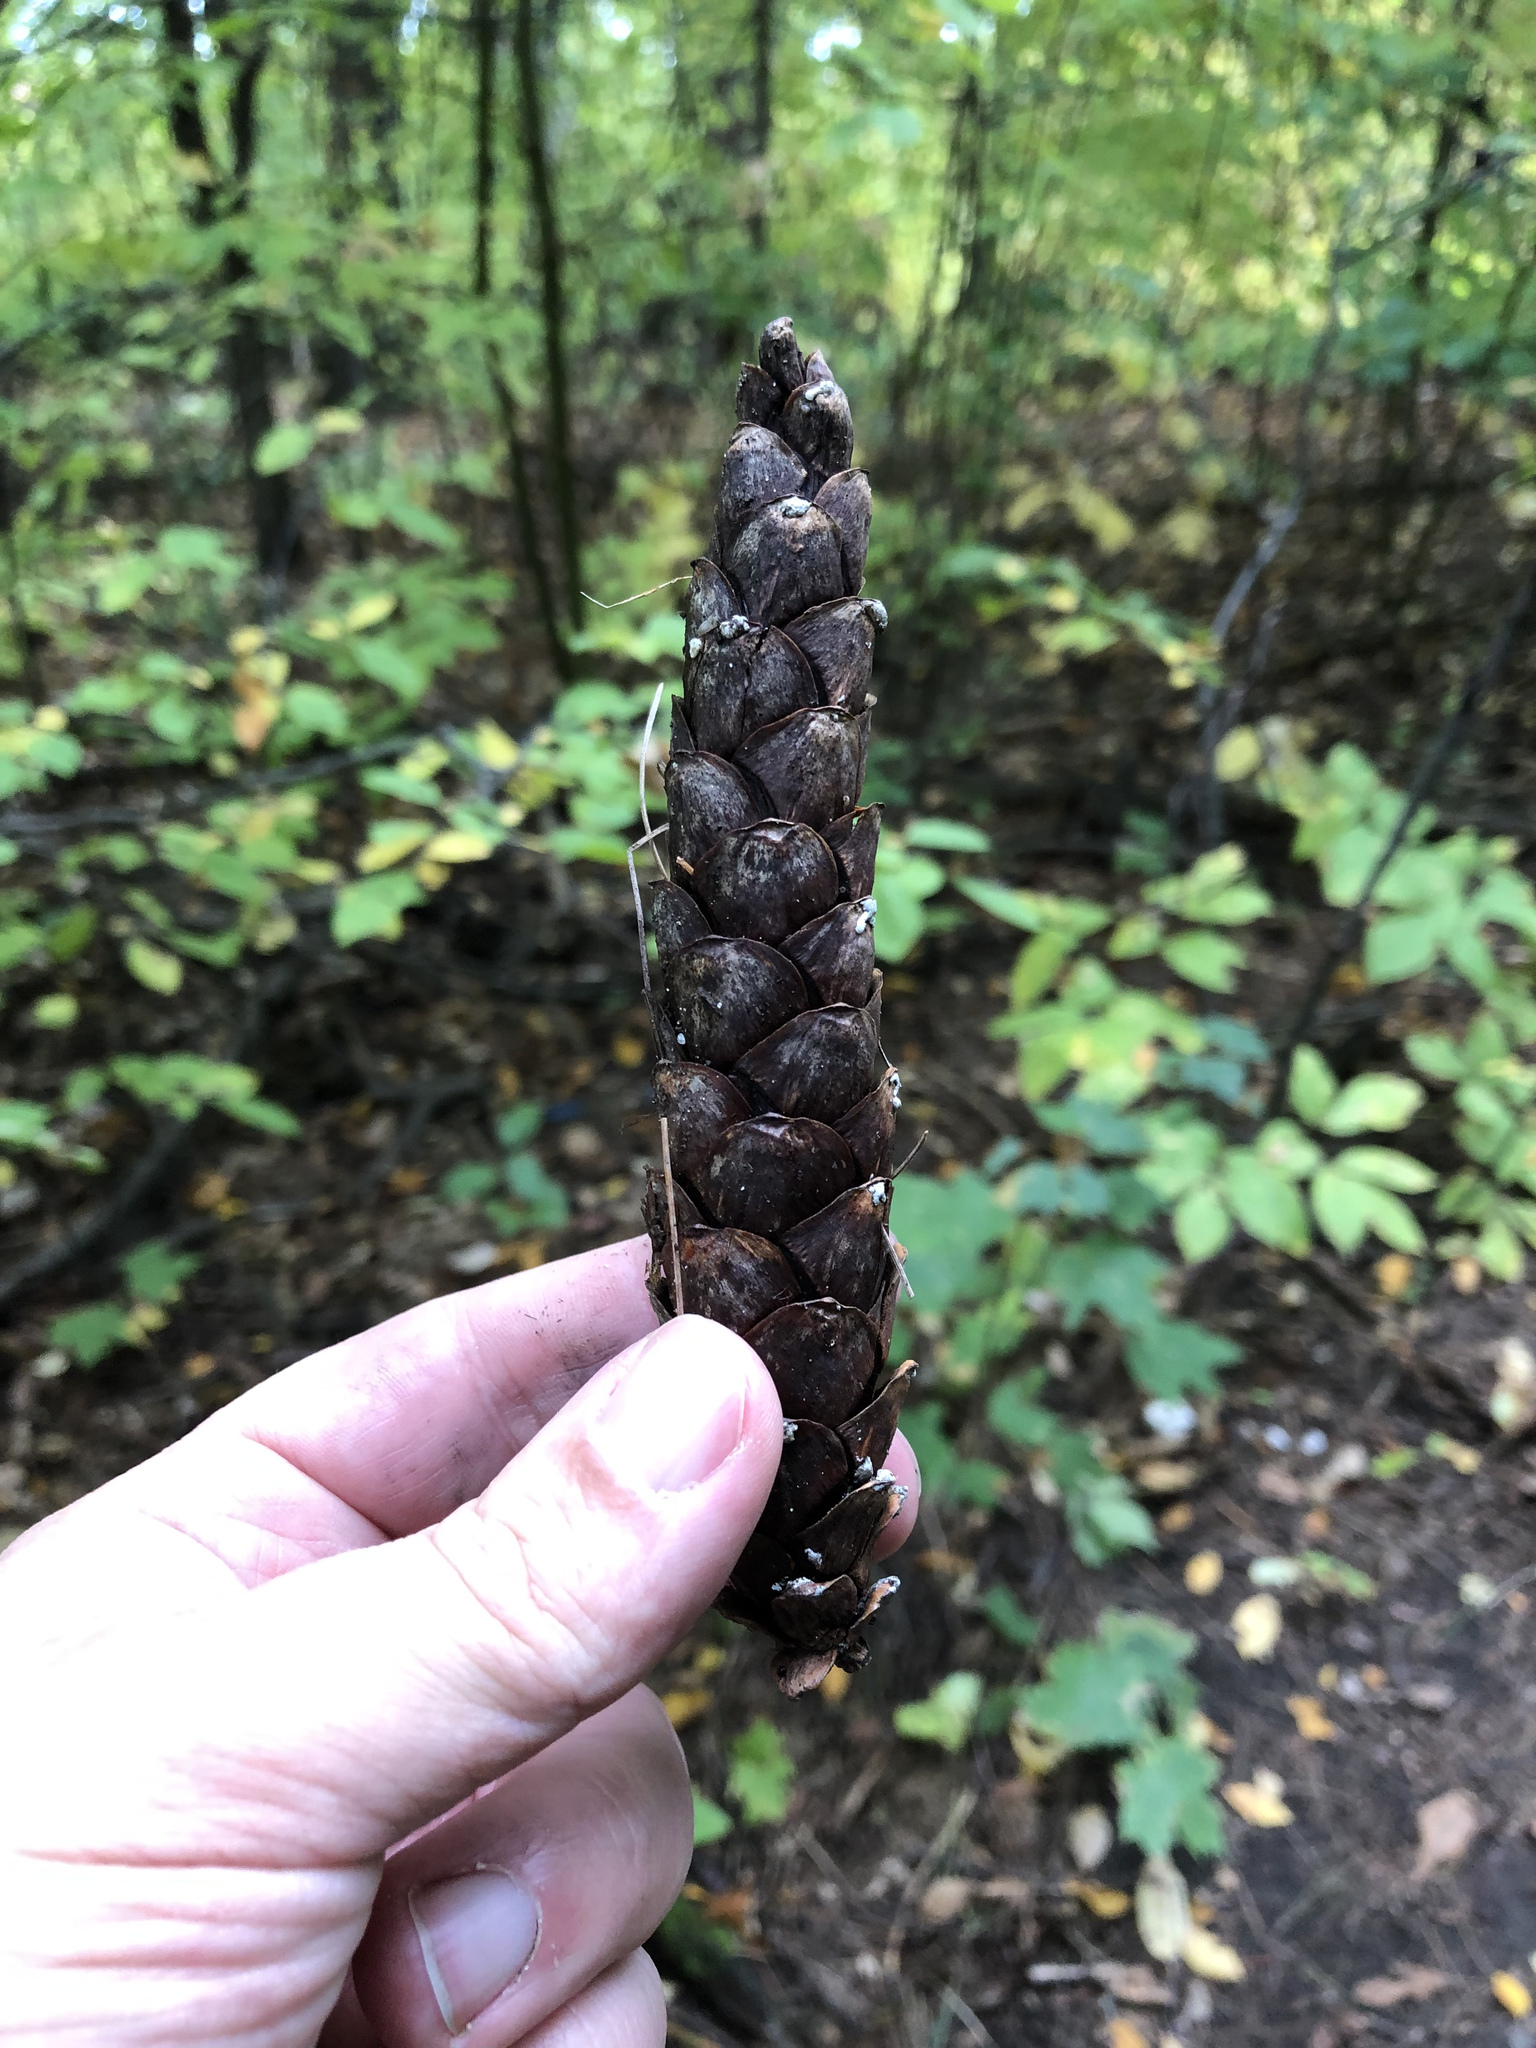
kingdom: Plantae
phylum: Tracheophyta
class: Pinopsida
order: Pinales
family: Pinaceae
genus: Pinus
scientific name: Pinus strobus
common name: Weymouth pine
